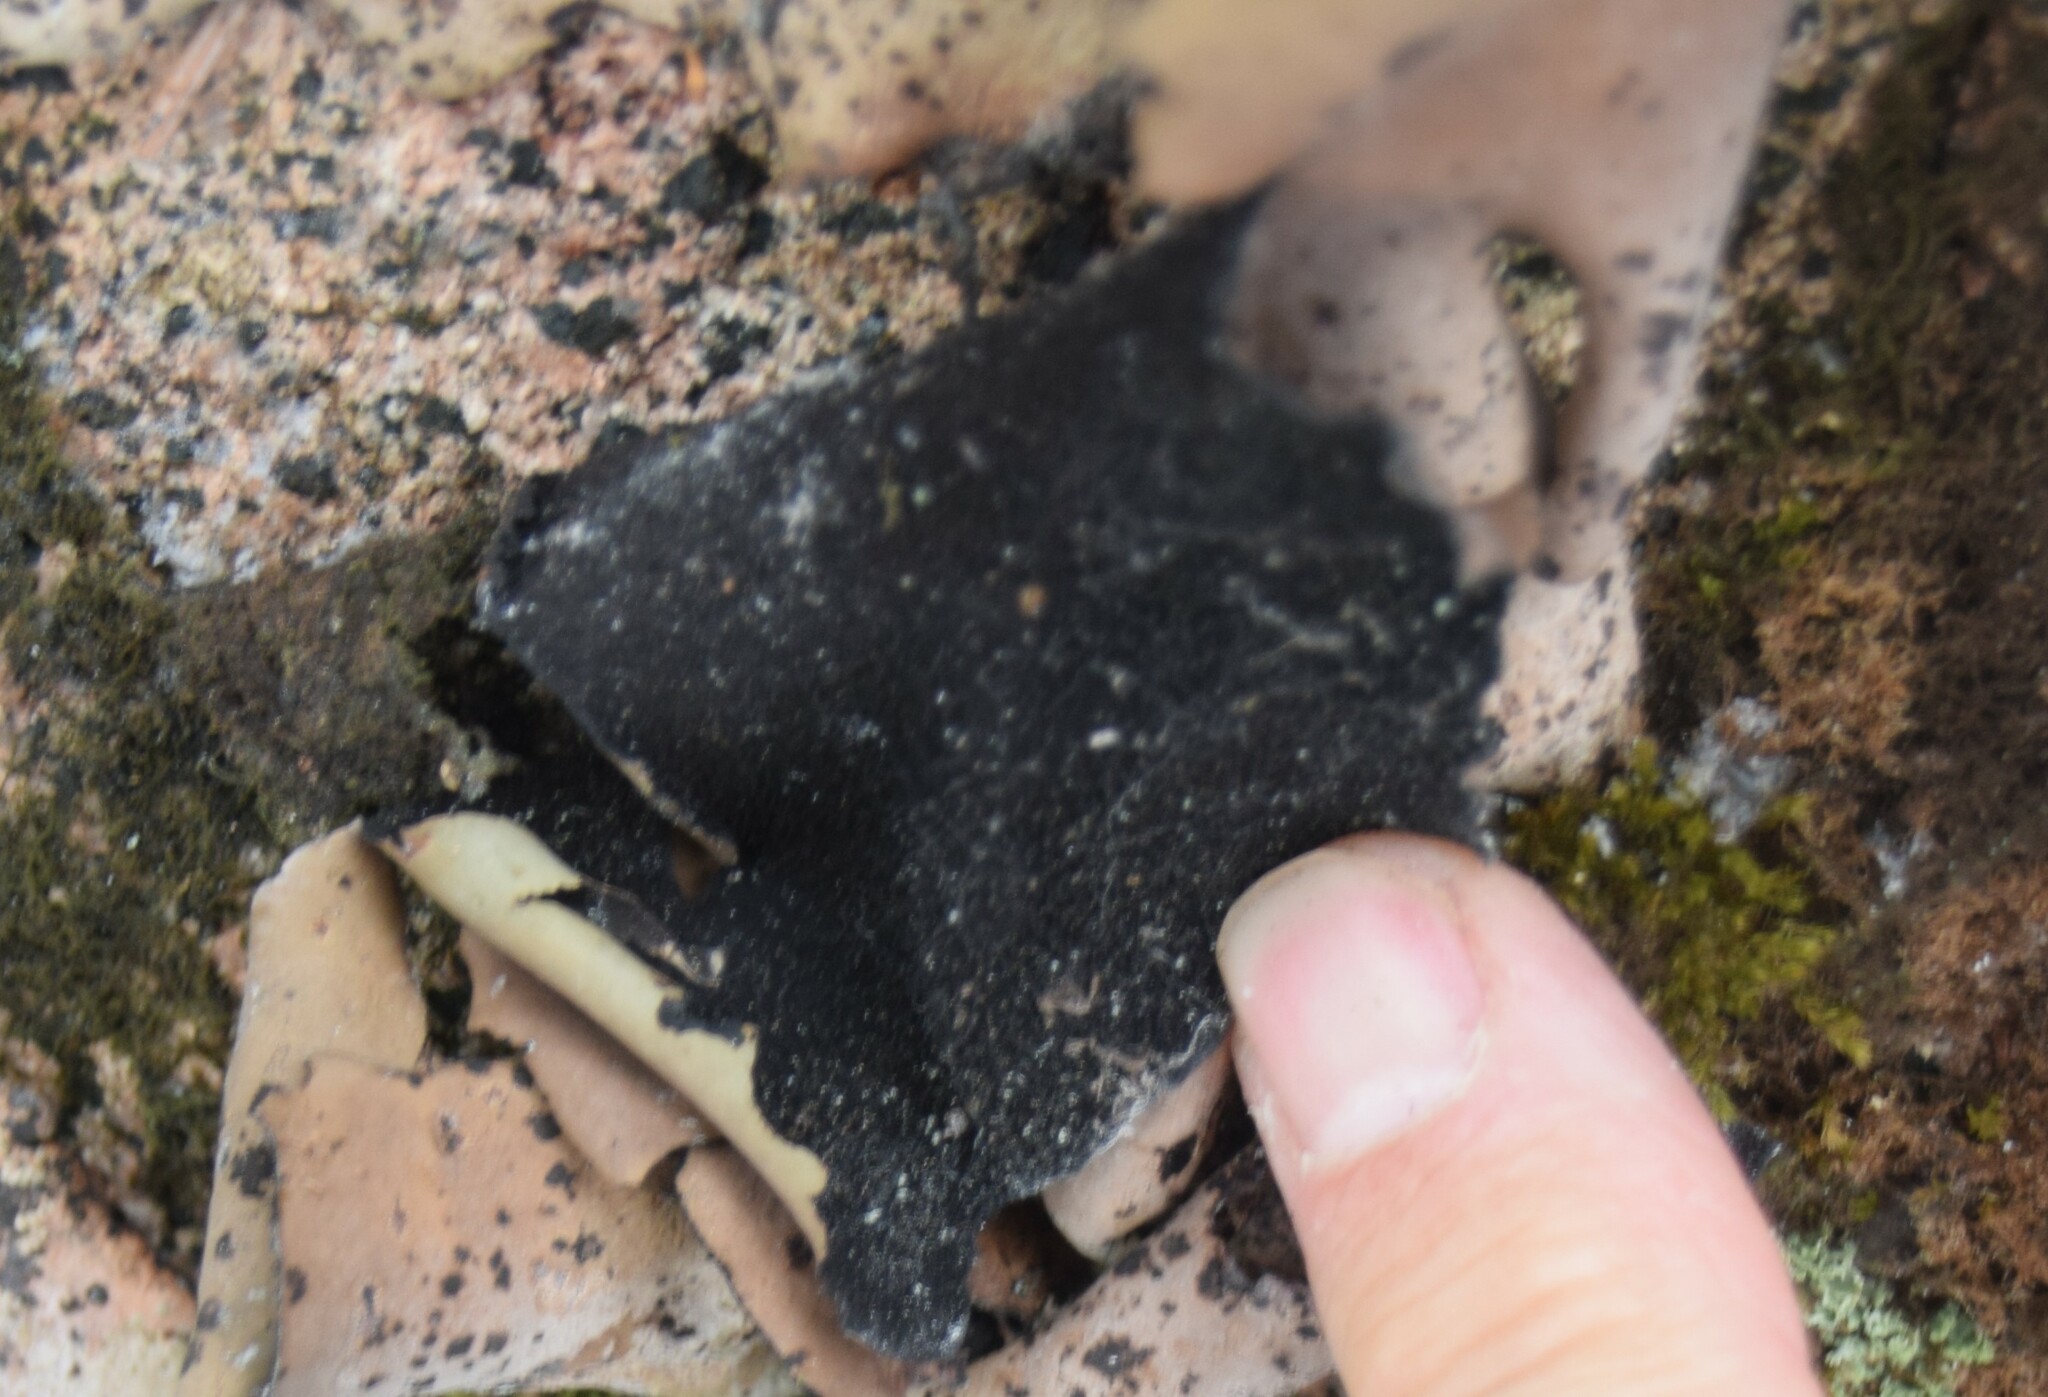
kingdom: Fungi
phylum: Ascomycota
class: Lecanoromycetes
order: Umbilicariales
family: Umbilicariaceae
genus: Umbilicaria
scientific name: Umbilicaria mammulata
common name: Smooth rock tripe
